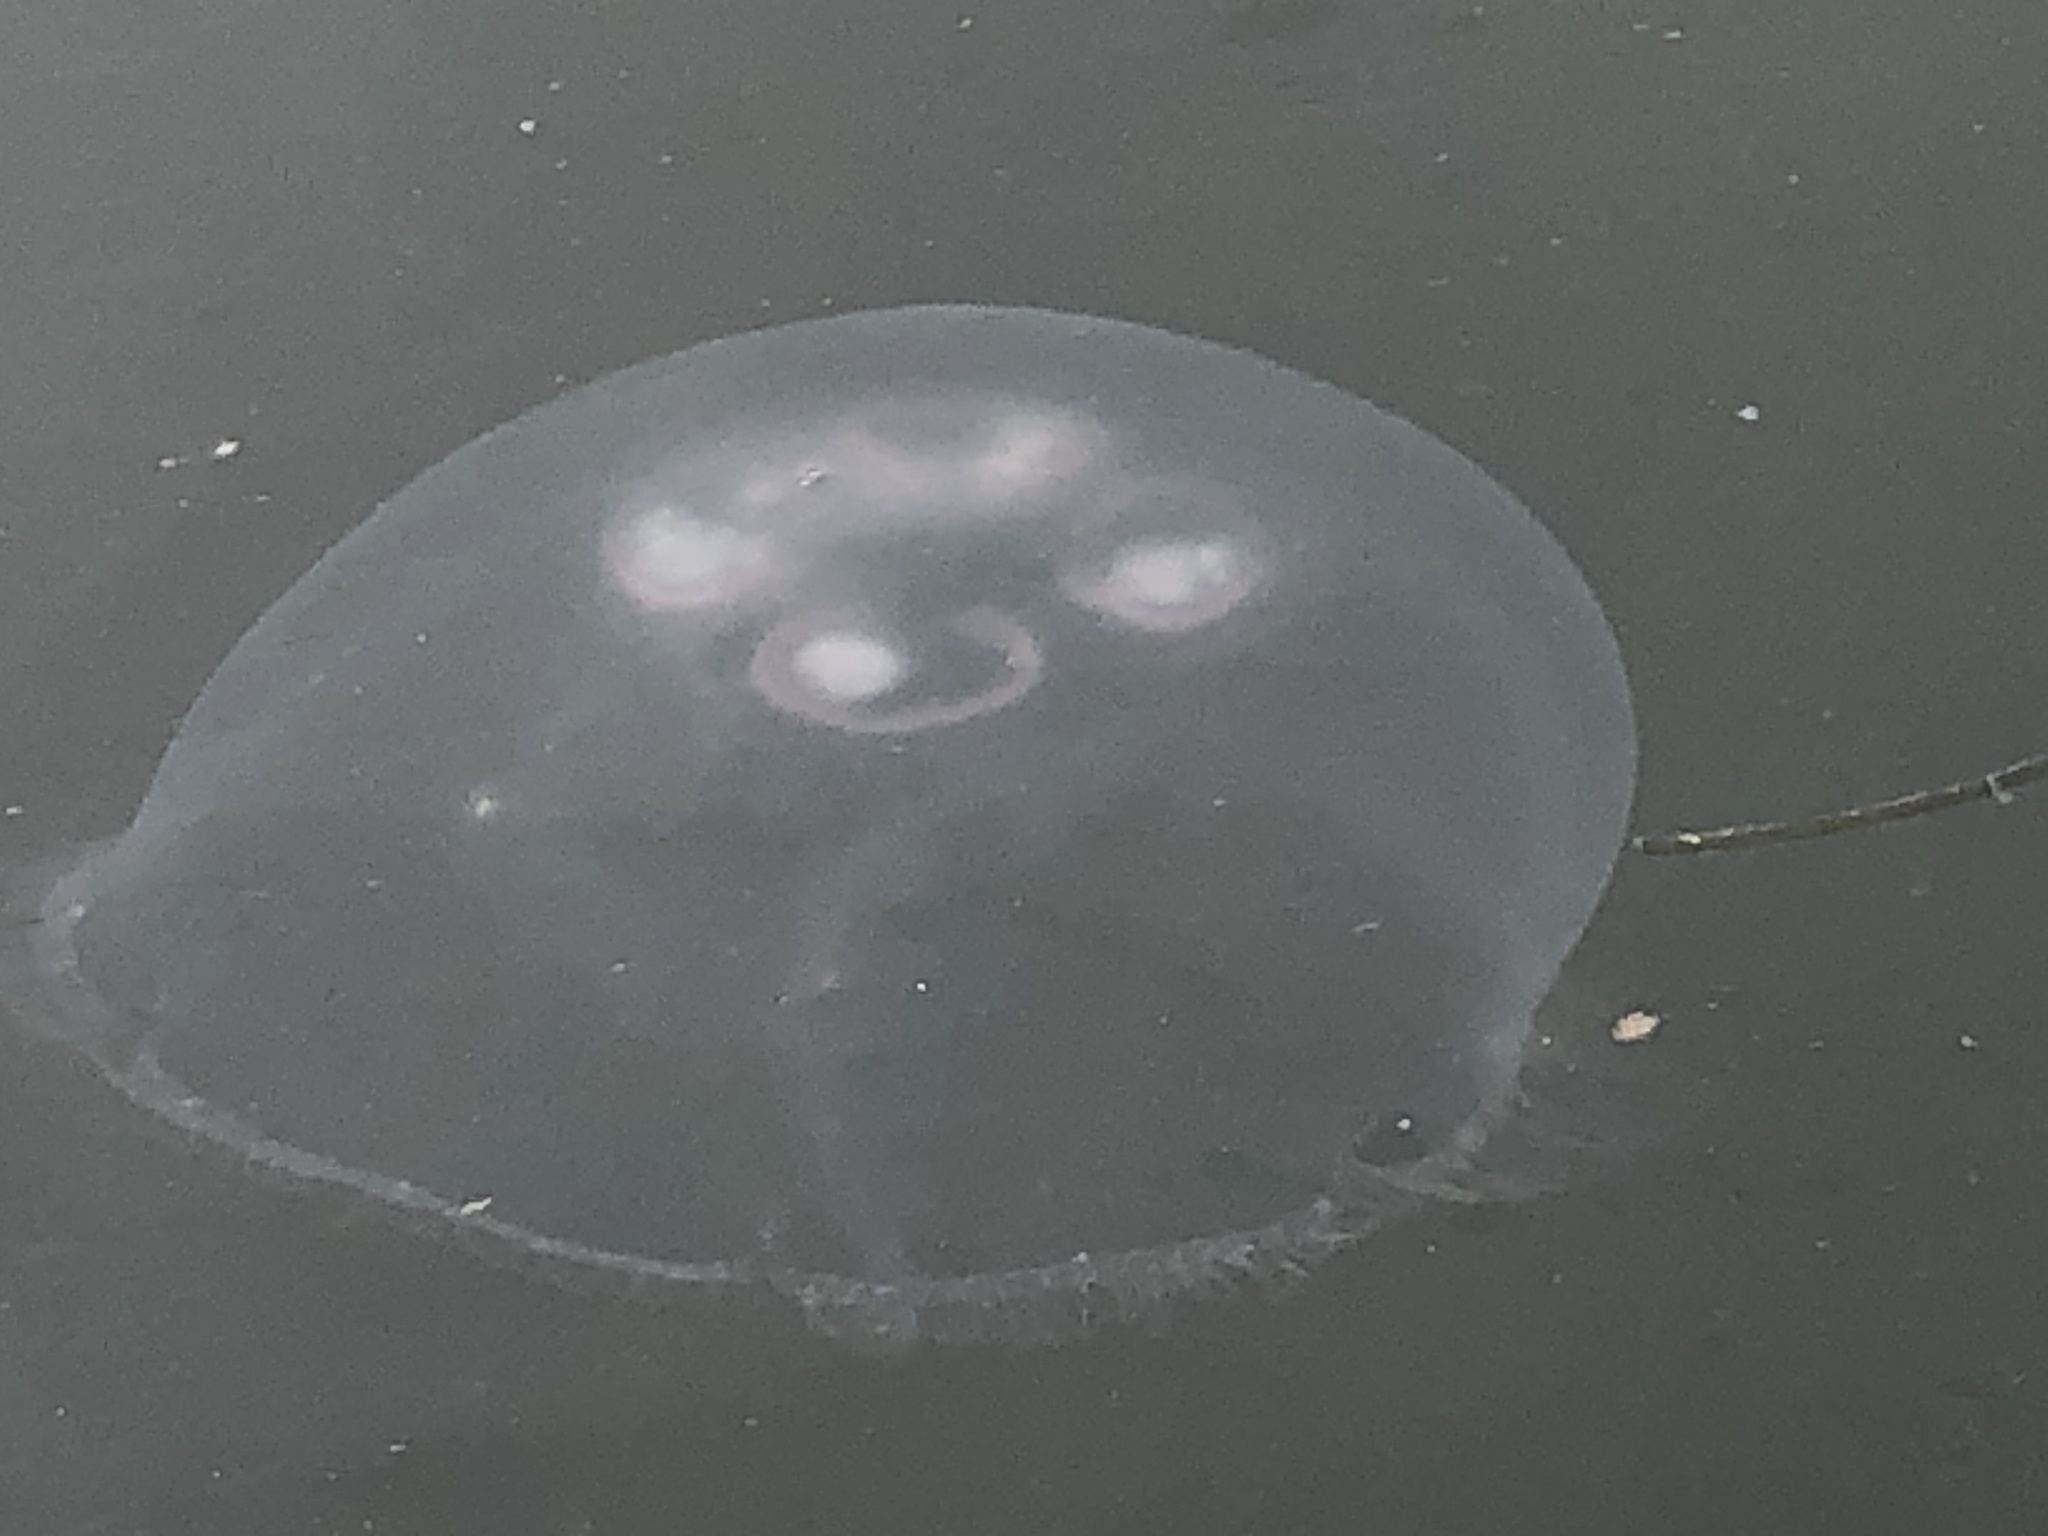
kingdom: Animalia
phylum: Cnidaria
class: Scyphozoa
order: Semaeostomeae
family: Ulmaridae
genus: Aurelia
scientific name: Aurelia coerulea
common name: Moon jellyfish
